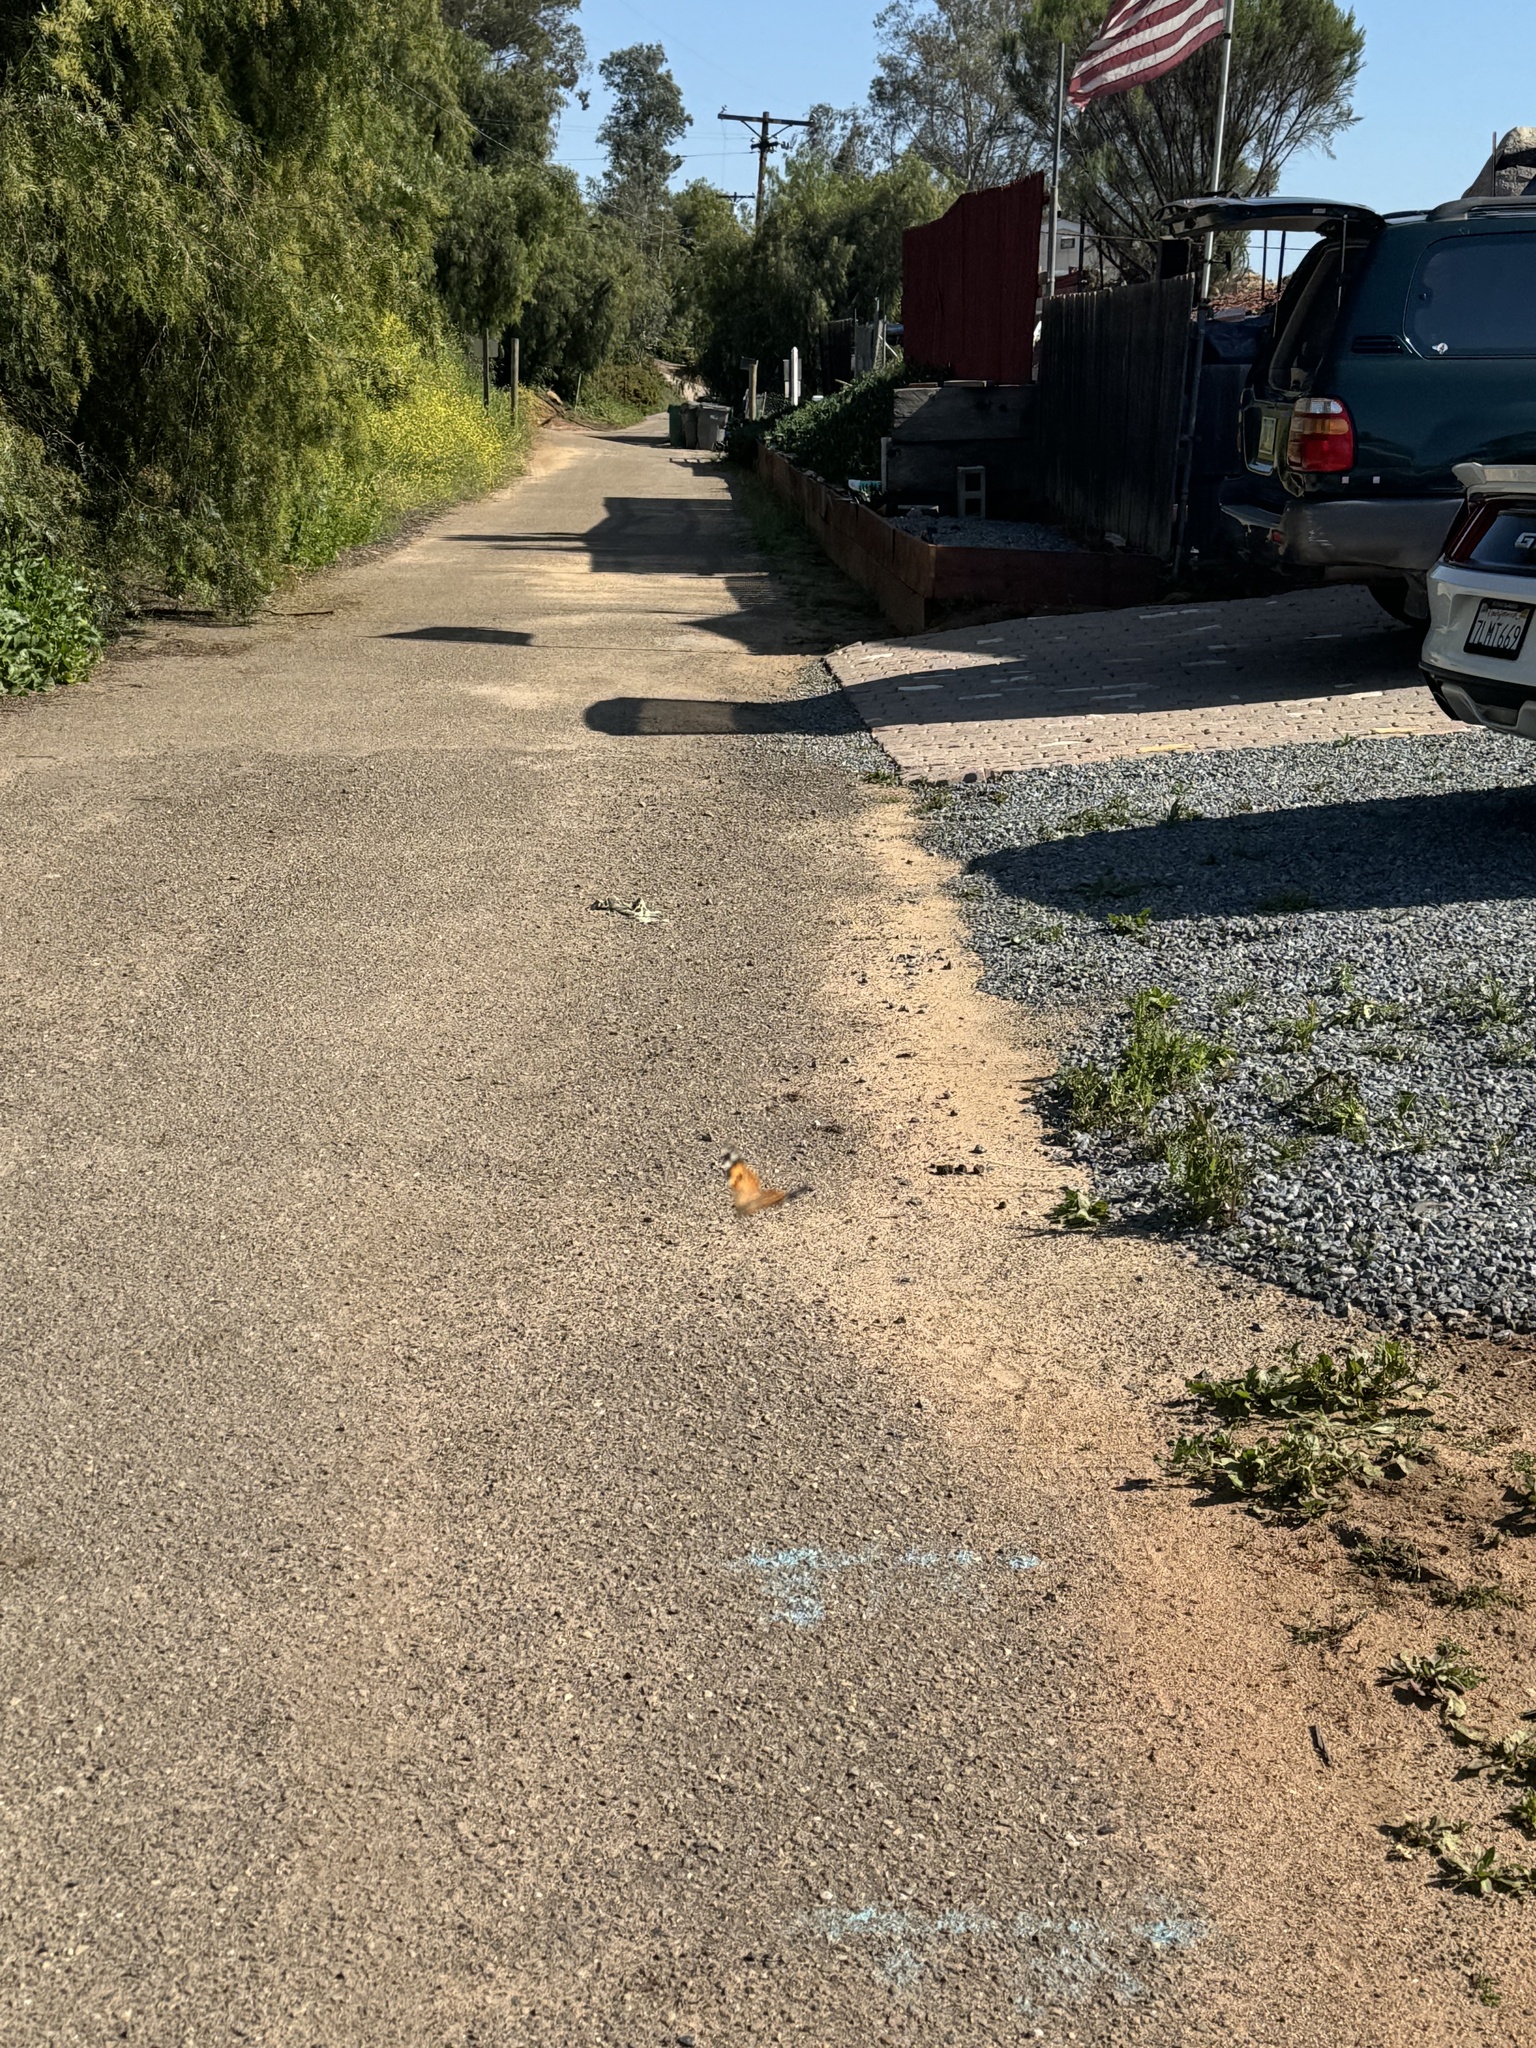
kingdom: Animalia
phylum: Arthropoda
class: Insecta
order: Lepidoptera
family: Nymphalidae
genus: Vanessa
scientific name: Vanessa cardui
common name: Painted lady
